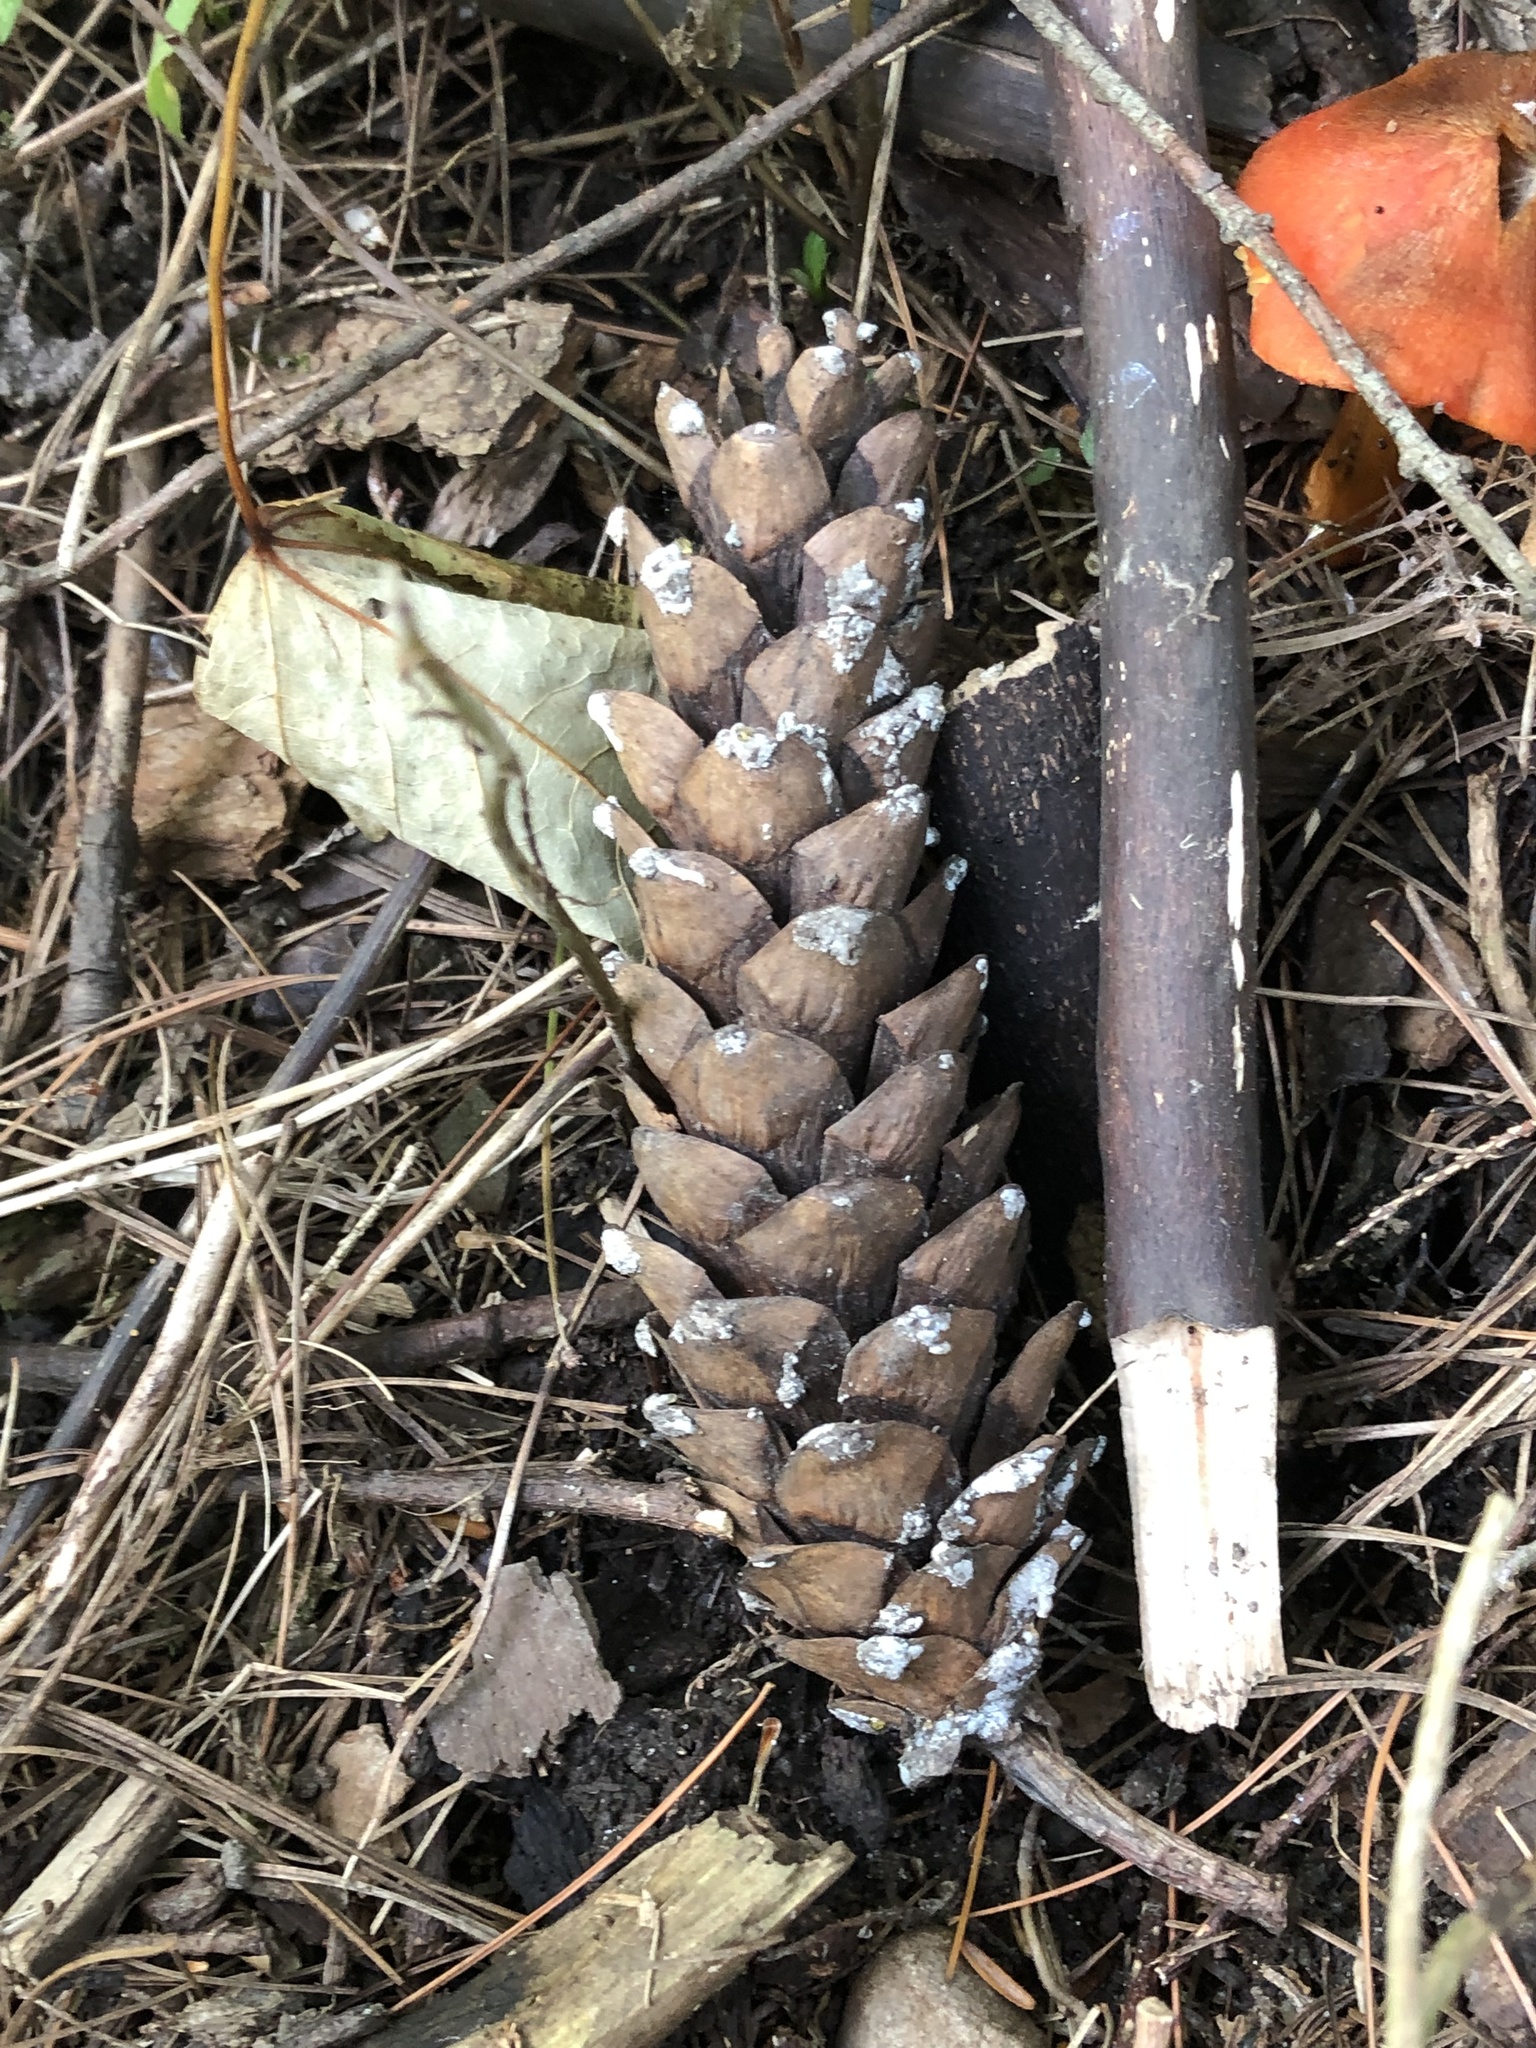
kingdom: Plantae
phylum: Tracheophyta
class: Pinopsida
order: Pinales
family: Pinaceae
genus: Pinus
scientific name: Pinus strobus
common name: Weymouth pine
